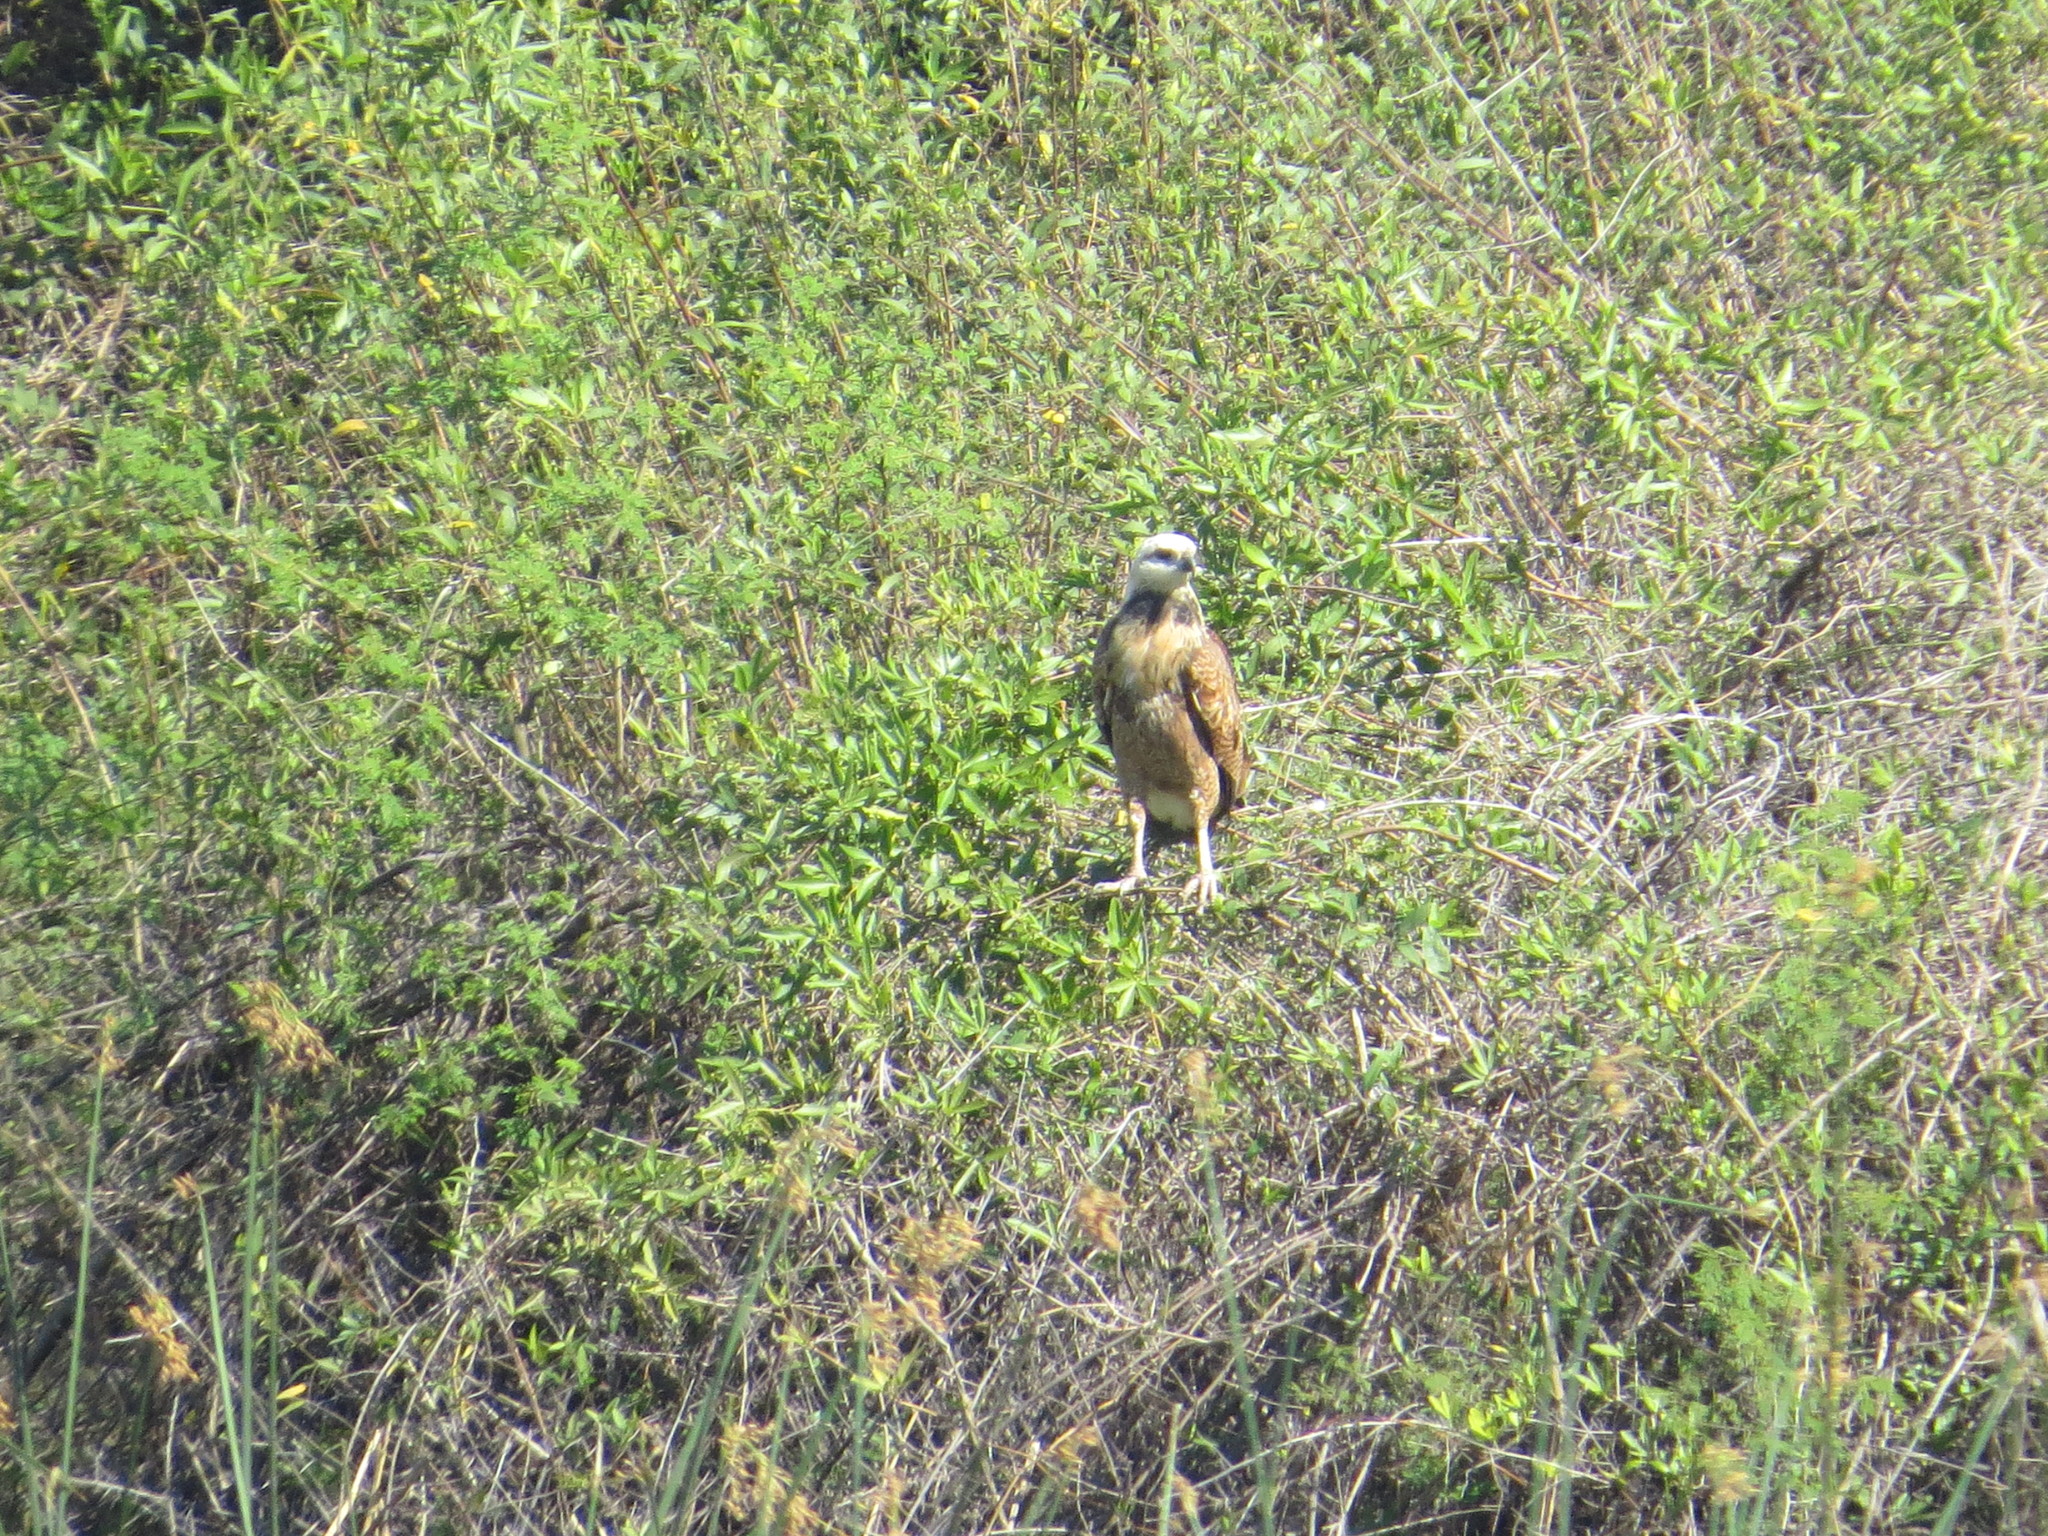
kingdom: Animalia
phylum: Chordata
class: Aves
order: Accipitriformes
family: Accipitridae
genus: Busarellus
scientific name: Busarellus nigricollis
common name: Black-collared hawk
